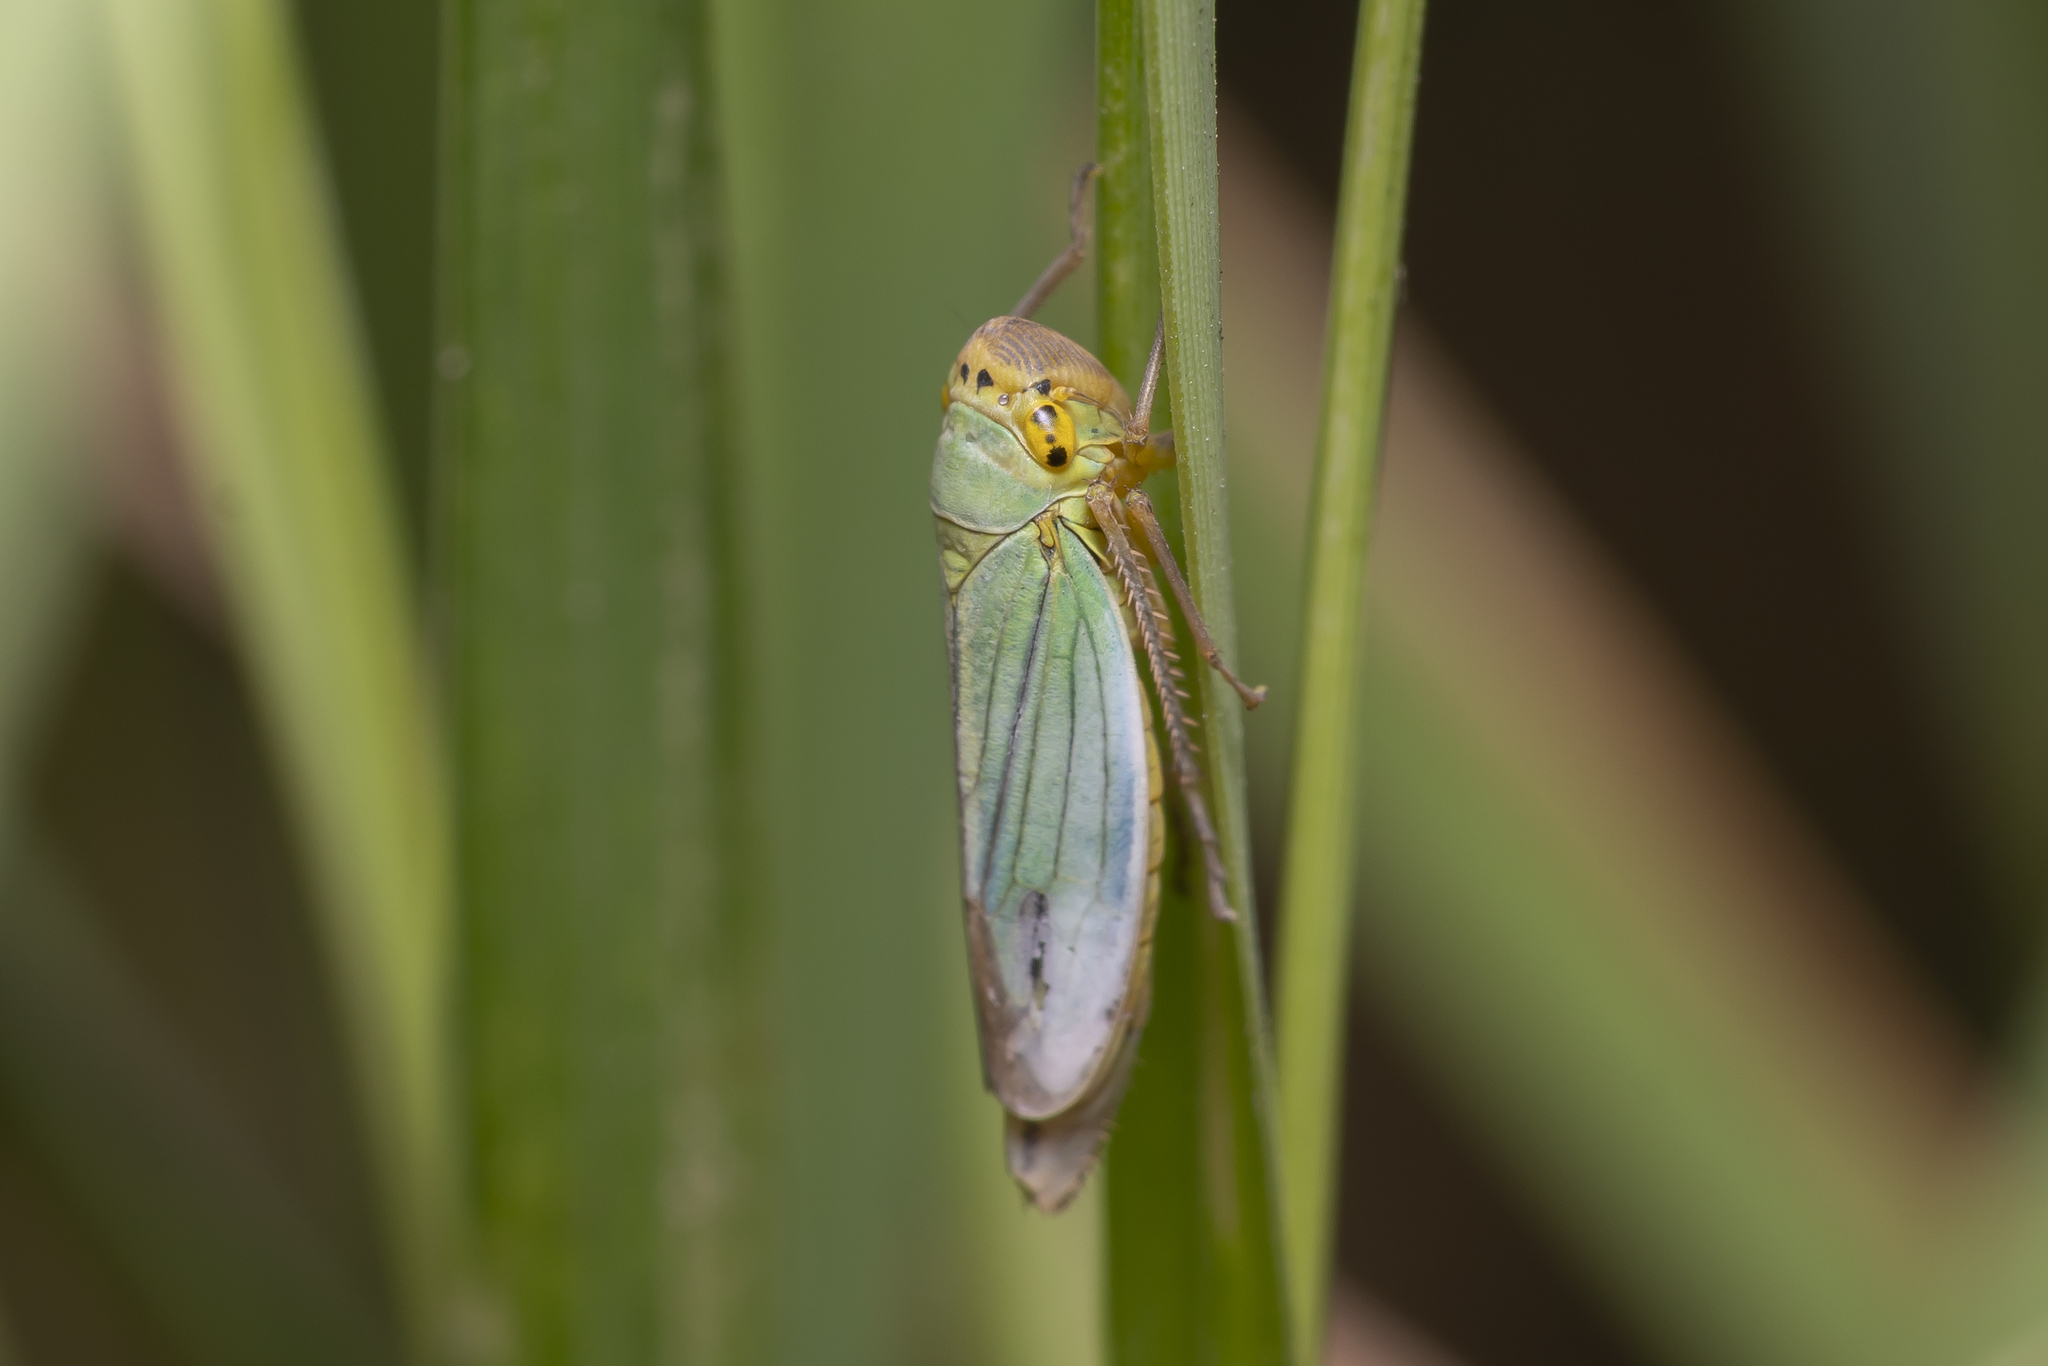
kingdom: Animalia
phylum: Arthropoda
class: Insecta
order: Hemiptera
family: Cicadellidae
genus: Cicadella
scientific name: Cicadella viridis
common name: Leafhopper
